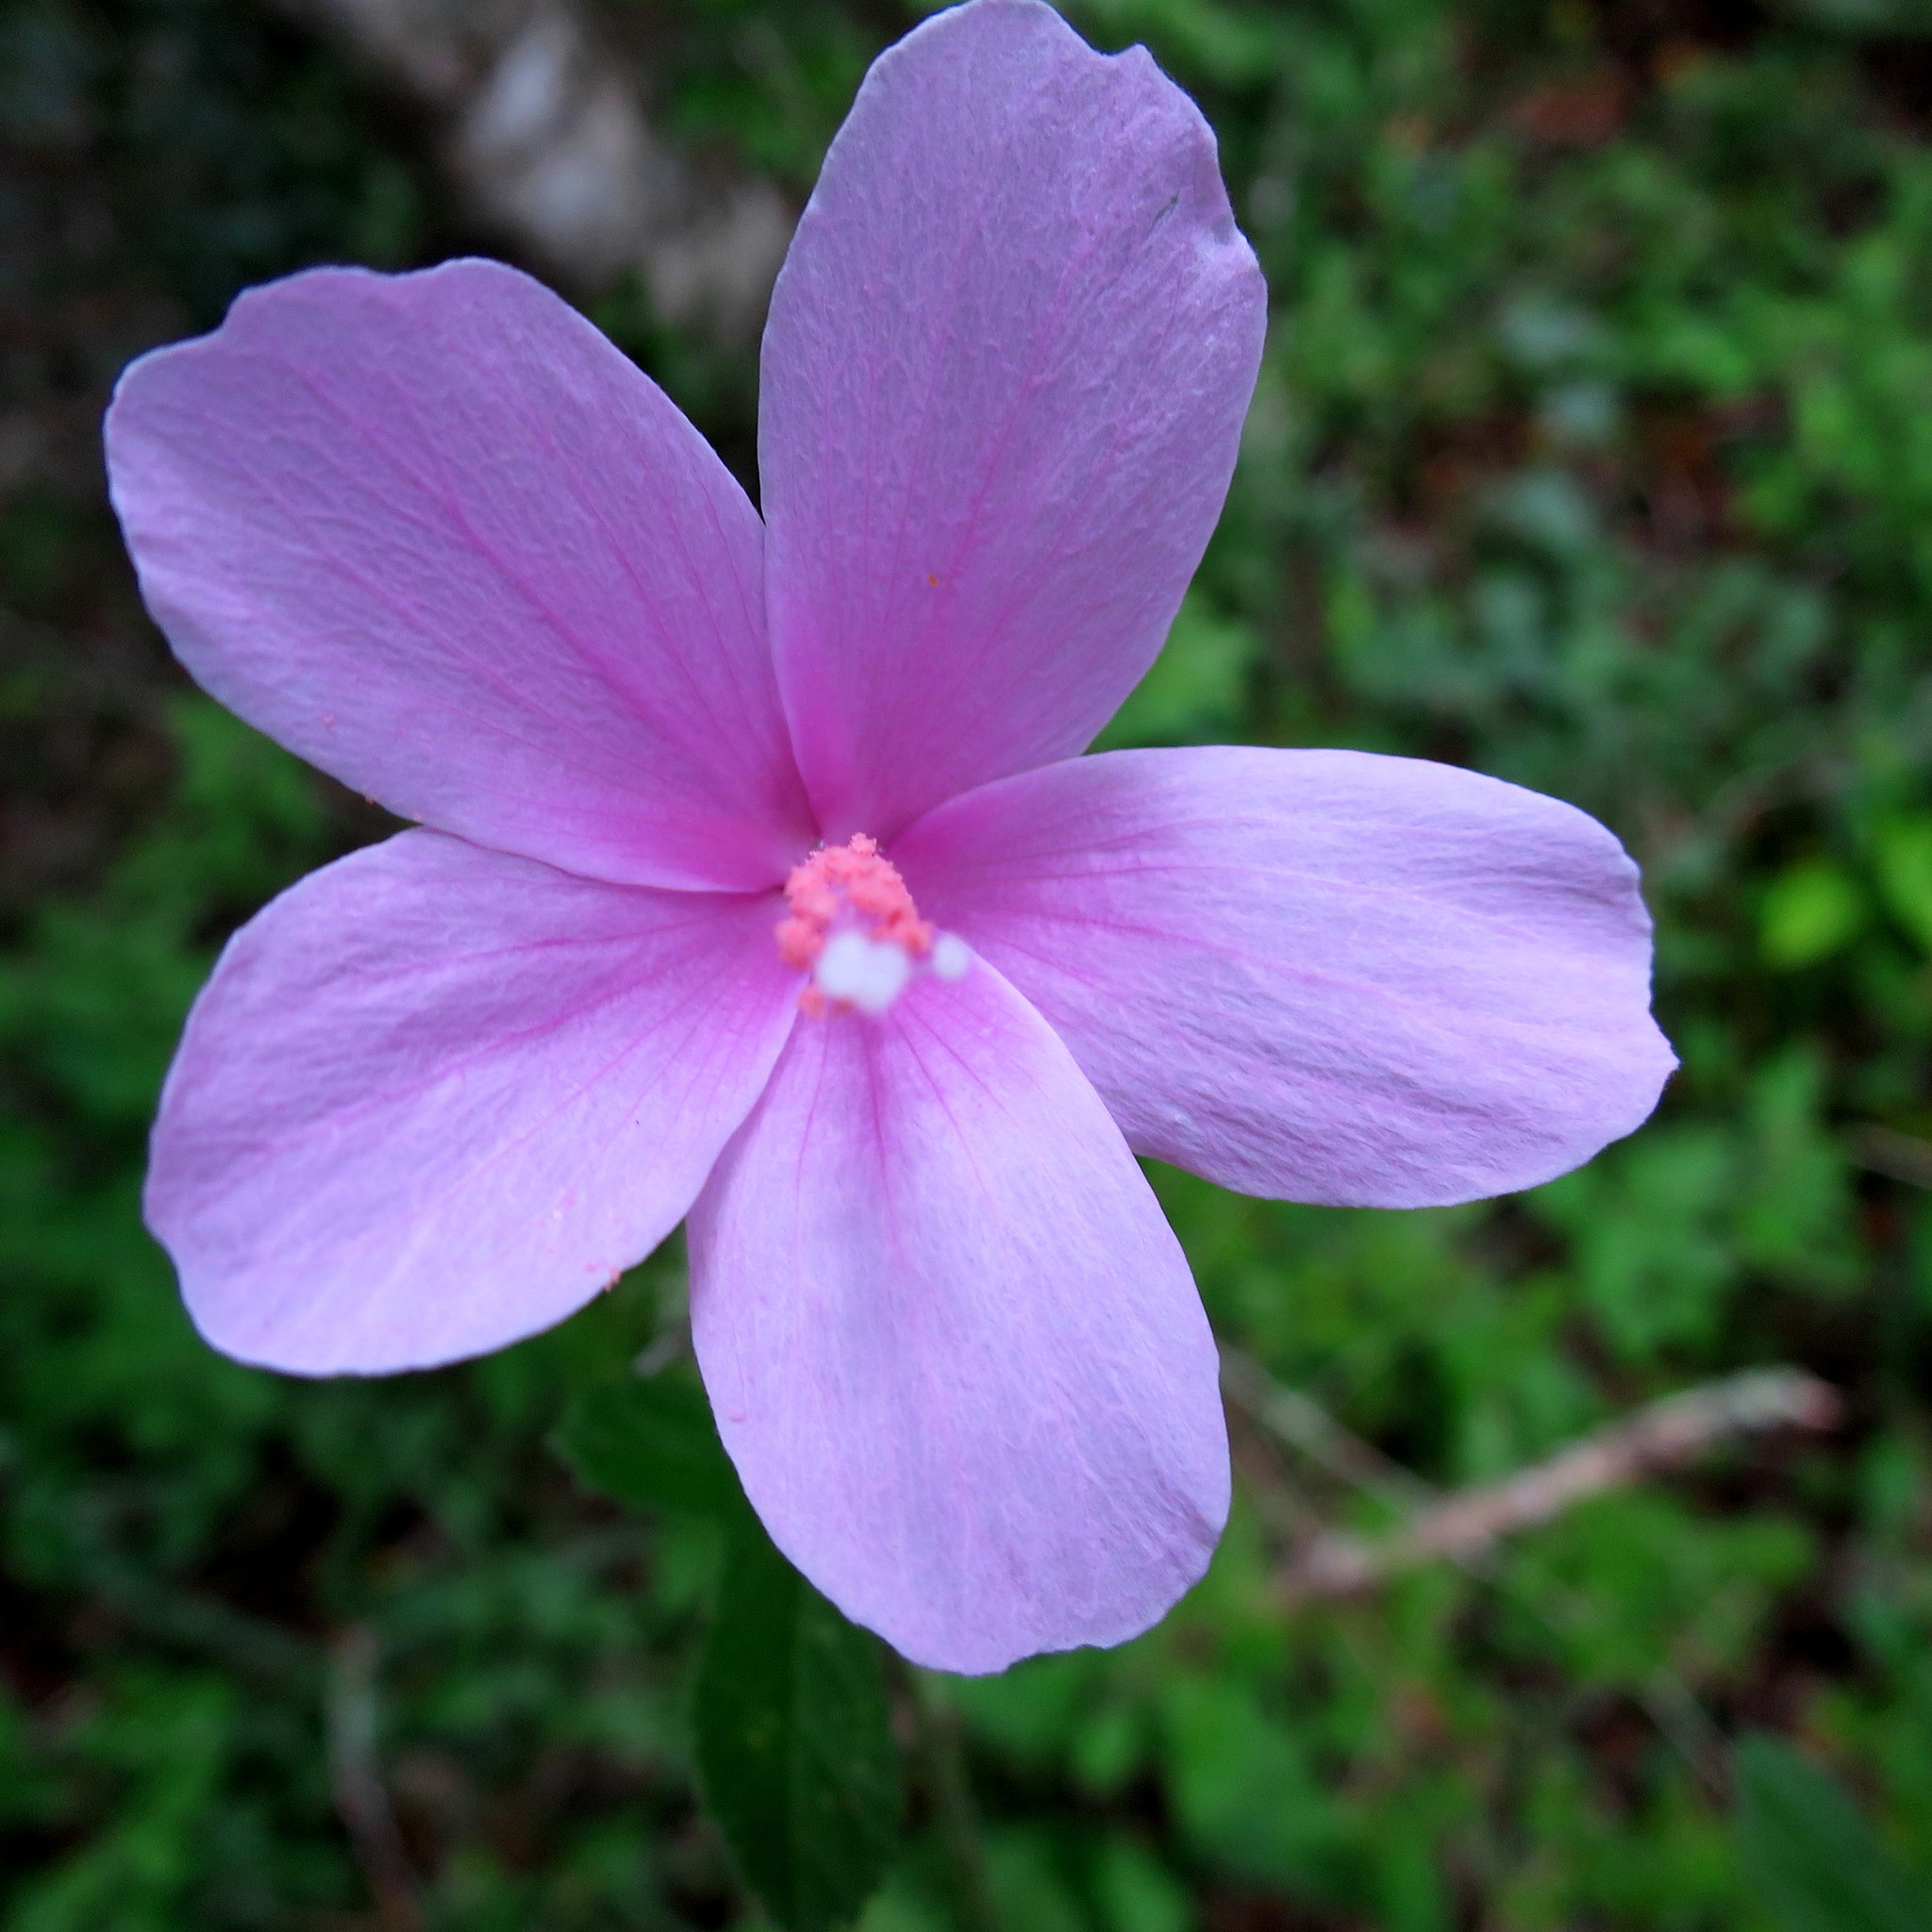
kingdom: Plantae
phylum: Tracheophyta
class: Magnoliopsida
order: Malvales
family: Malvaceae
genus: Hibiscus
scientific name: Hibiscus pedunculatus
